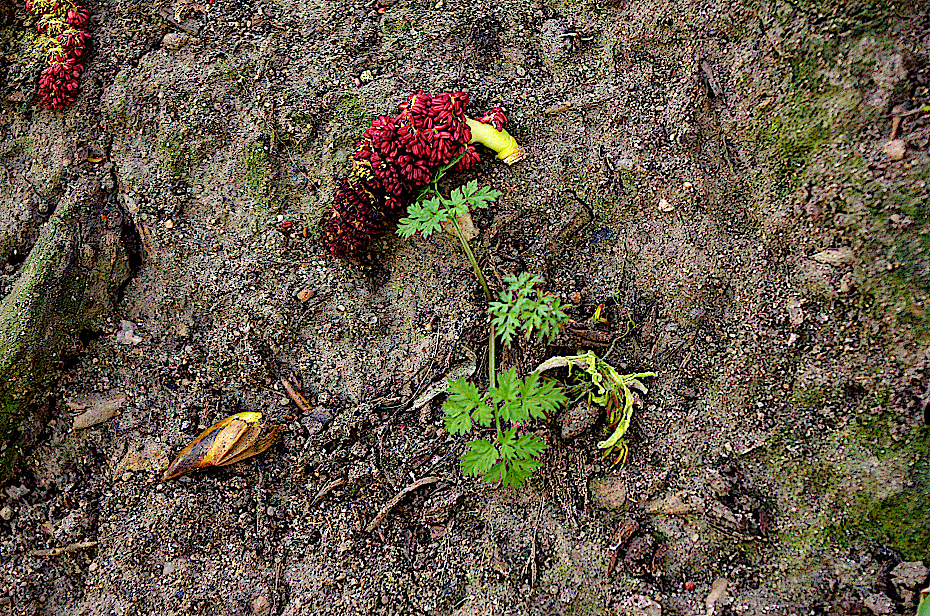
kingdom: Plantae
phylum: Tracheophyta
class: Magnoliopsida
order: Apiales
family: Apiaceae
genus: Anthriscus
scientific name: Anthriscus sylvestris
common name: Cow parsley
